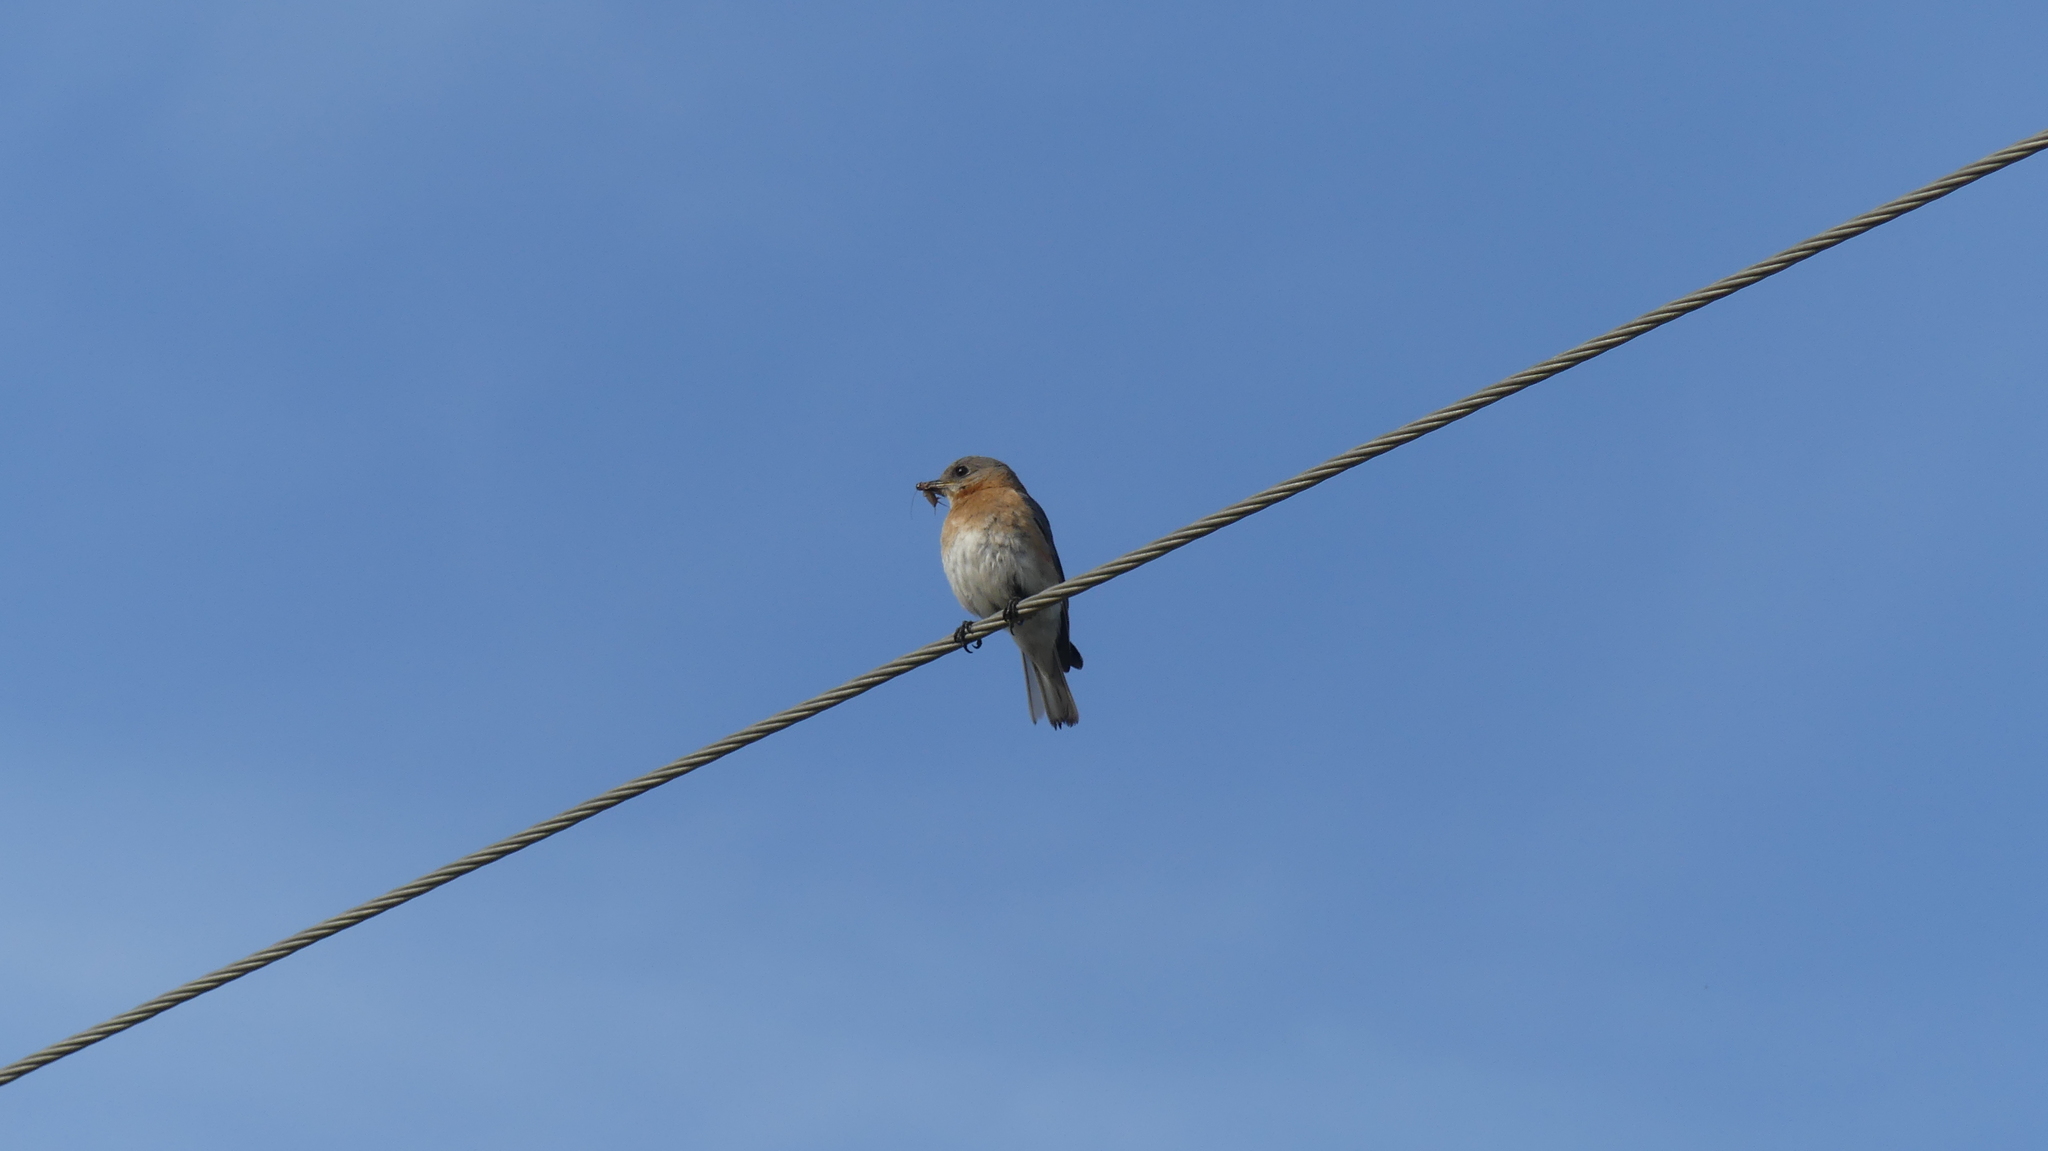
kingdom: Animalia
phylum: Chordata
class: Aves
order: Passeriformes
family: Turdidae
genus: Sialia
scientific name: Sialia sialis
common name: Eastern bluebird
